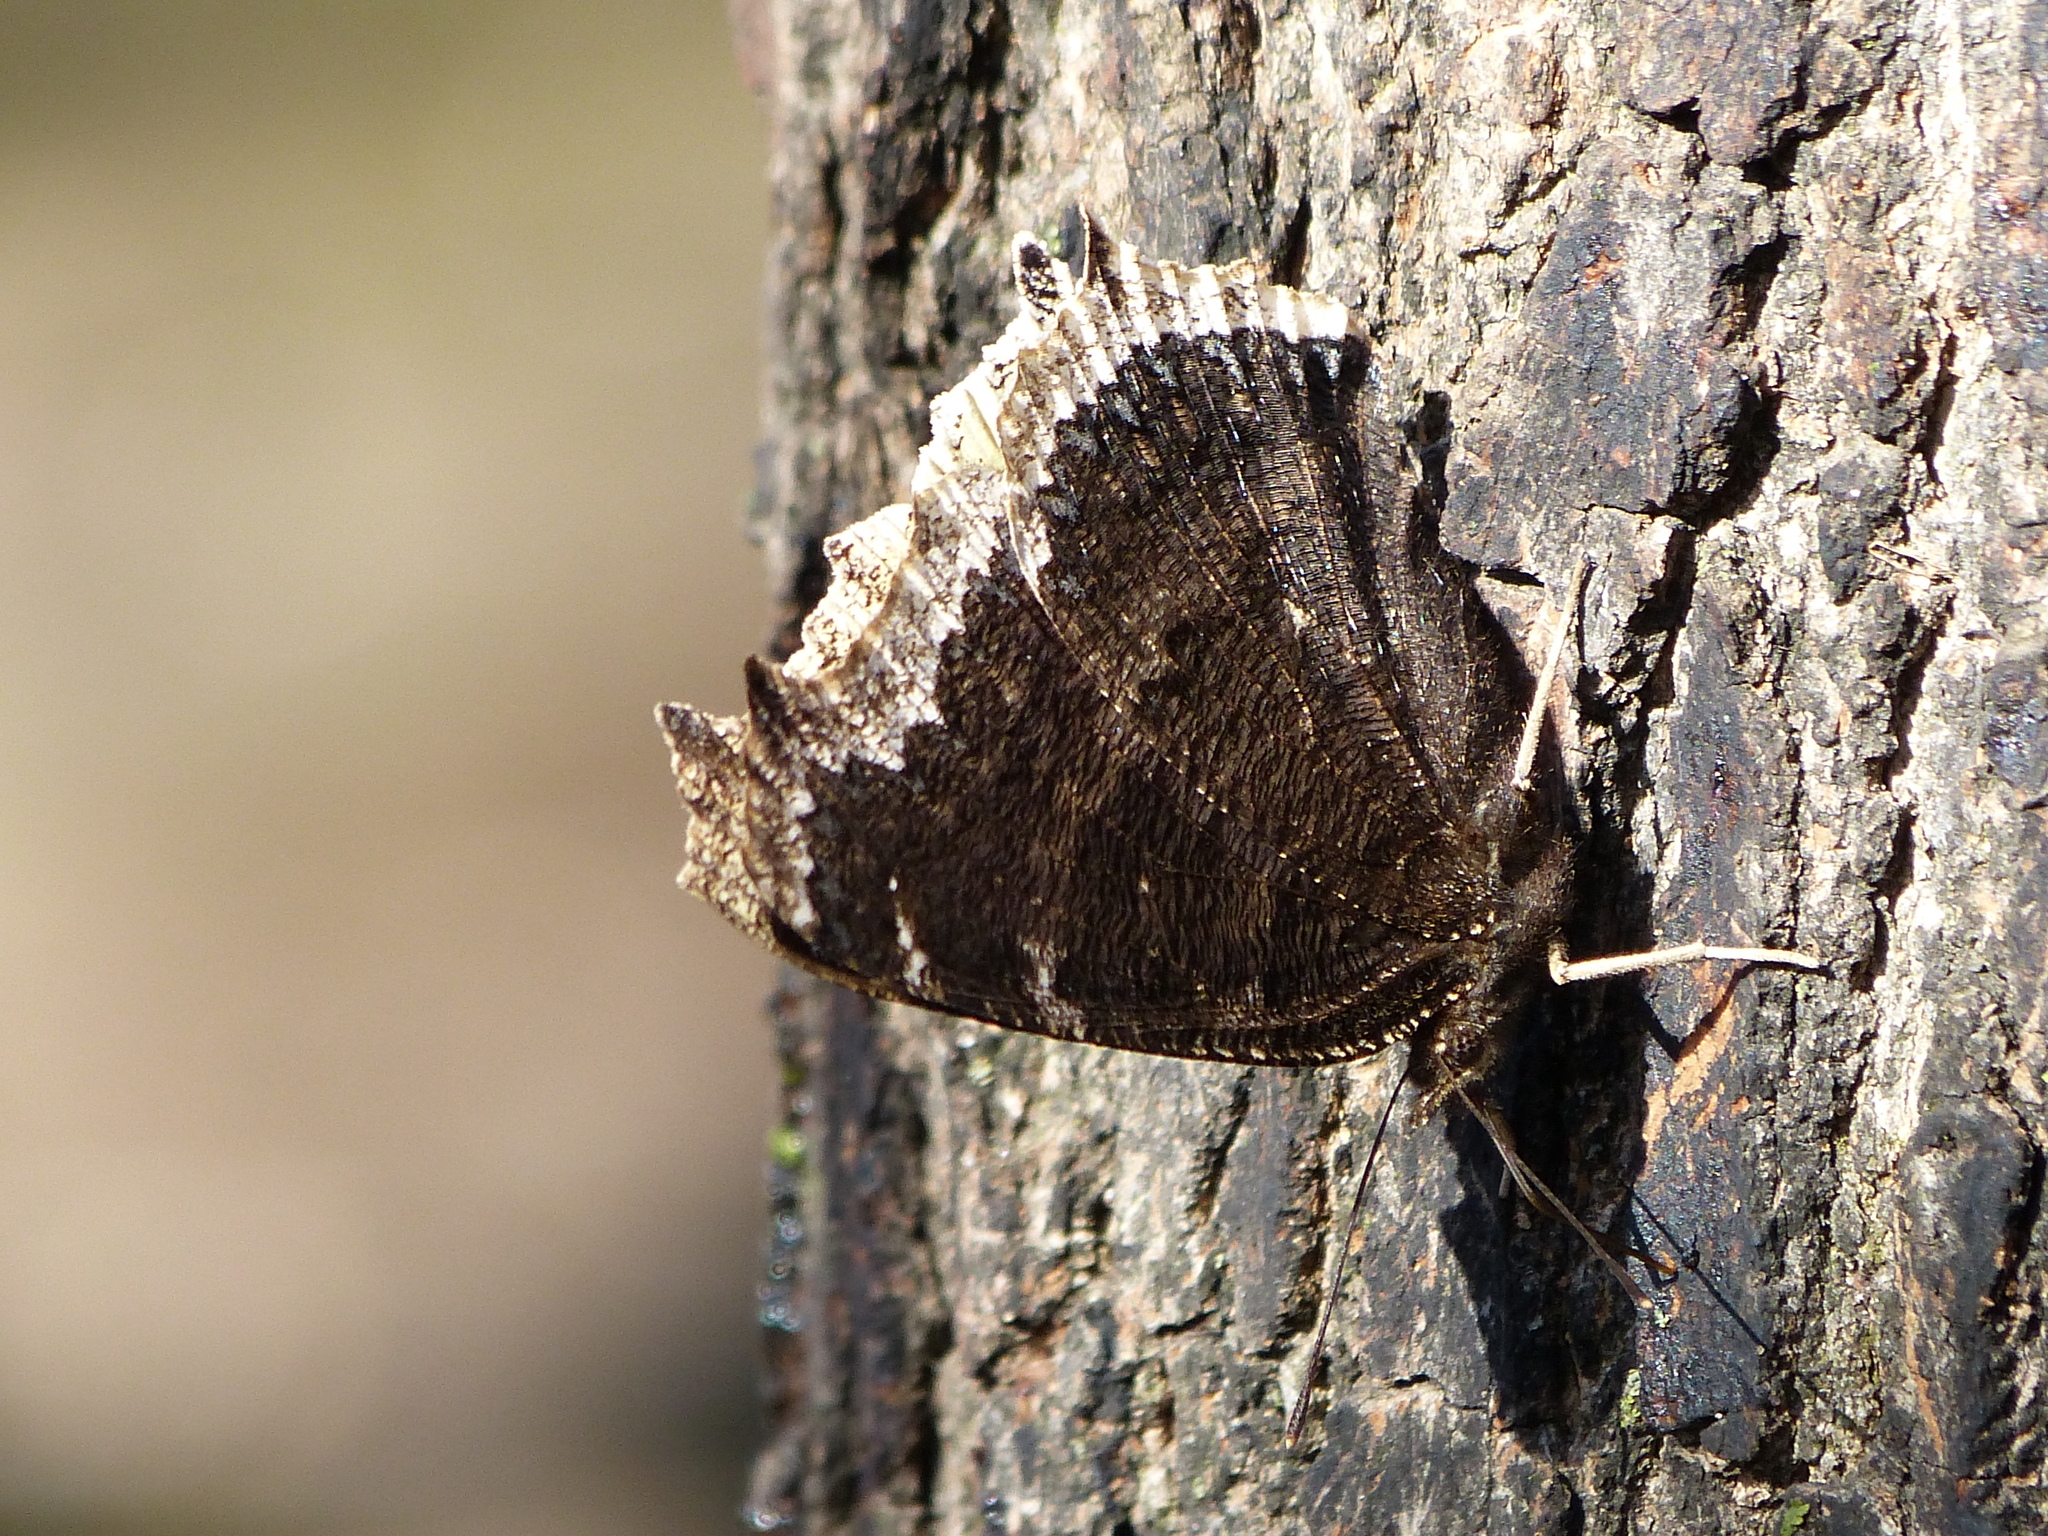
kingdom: Animalia
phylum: Arthropoda
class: Insecta
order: Lepidoptera
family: Nymphalidae
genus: Nymphalis
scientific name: Nymphalis antiopa
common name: Camberwell beauty
